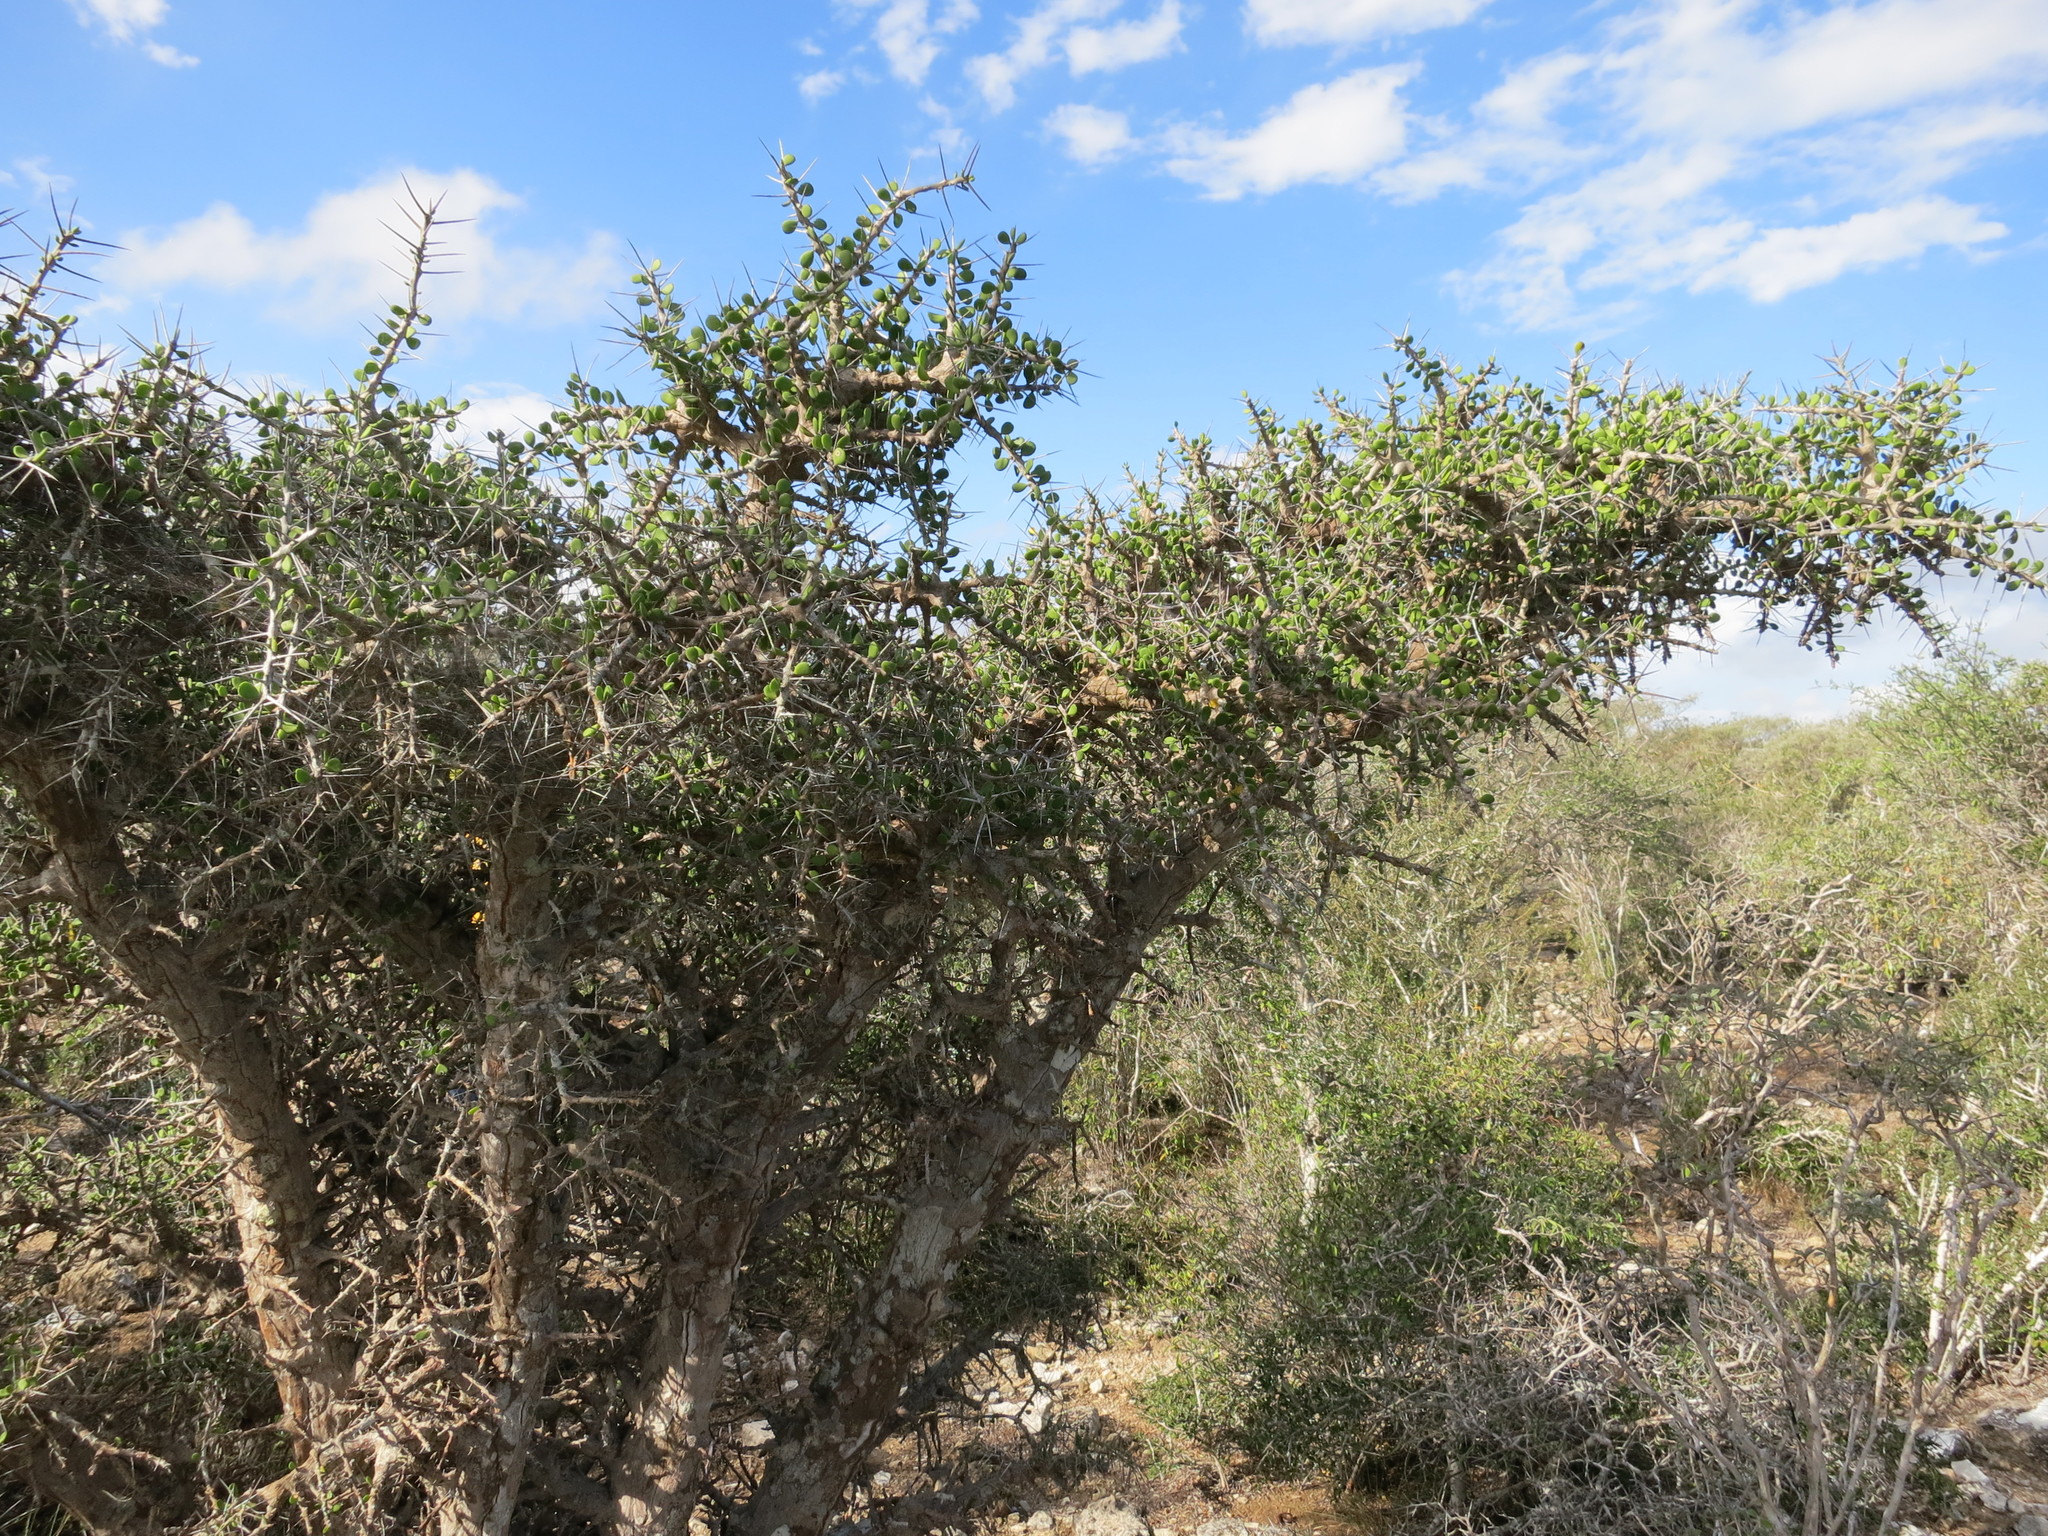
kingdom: Plantae
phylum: Tracheophyta
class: Magnoliopsida
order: Caryophyllales
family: Didiereaceae
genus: Alluaudia
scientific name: Alluaudia comosa
